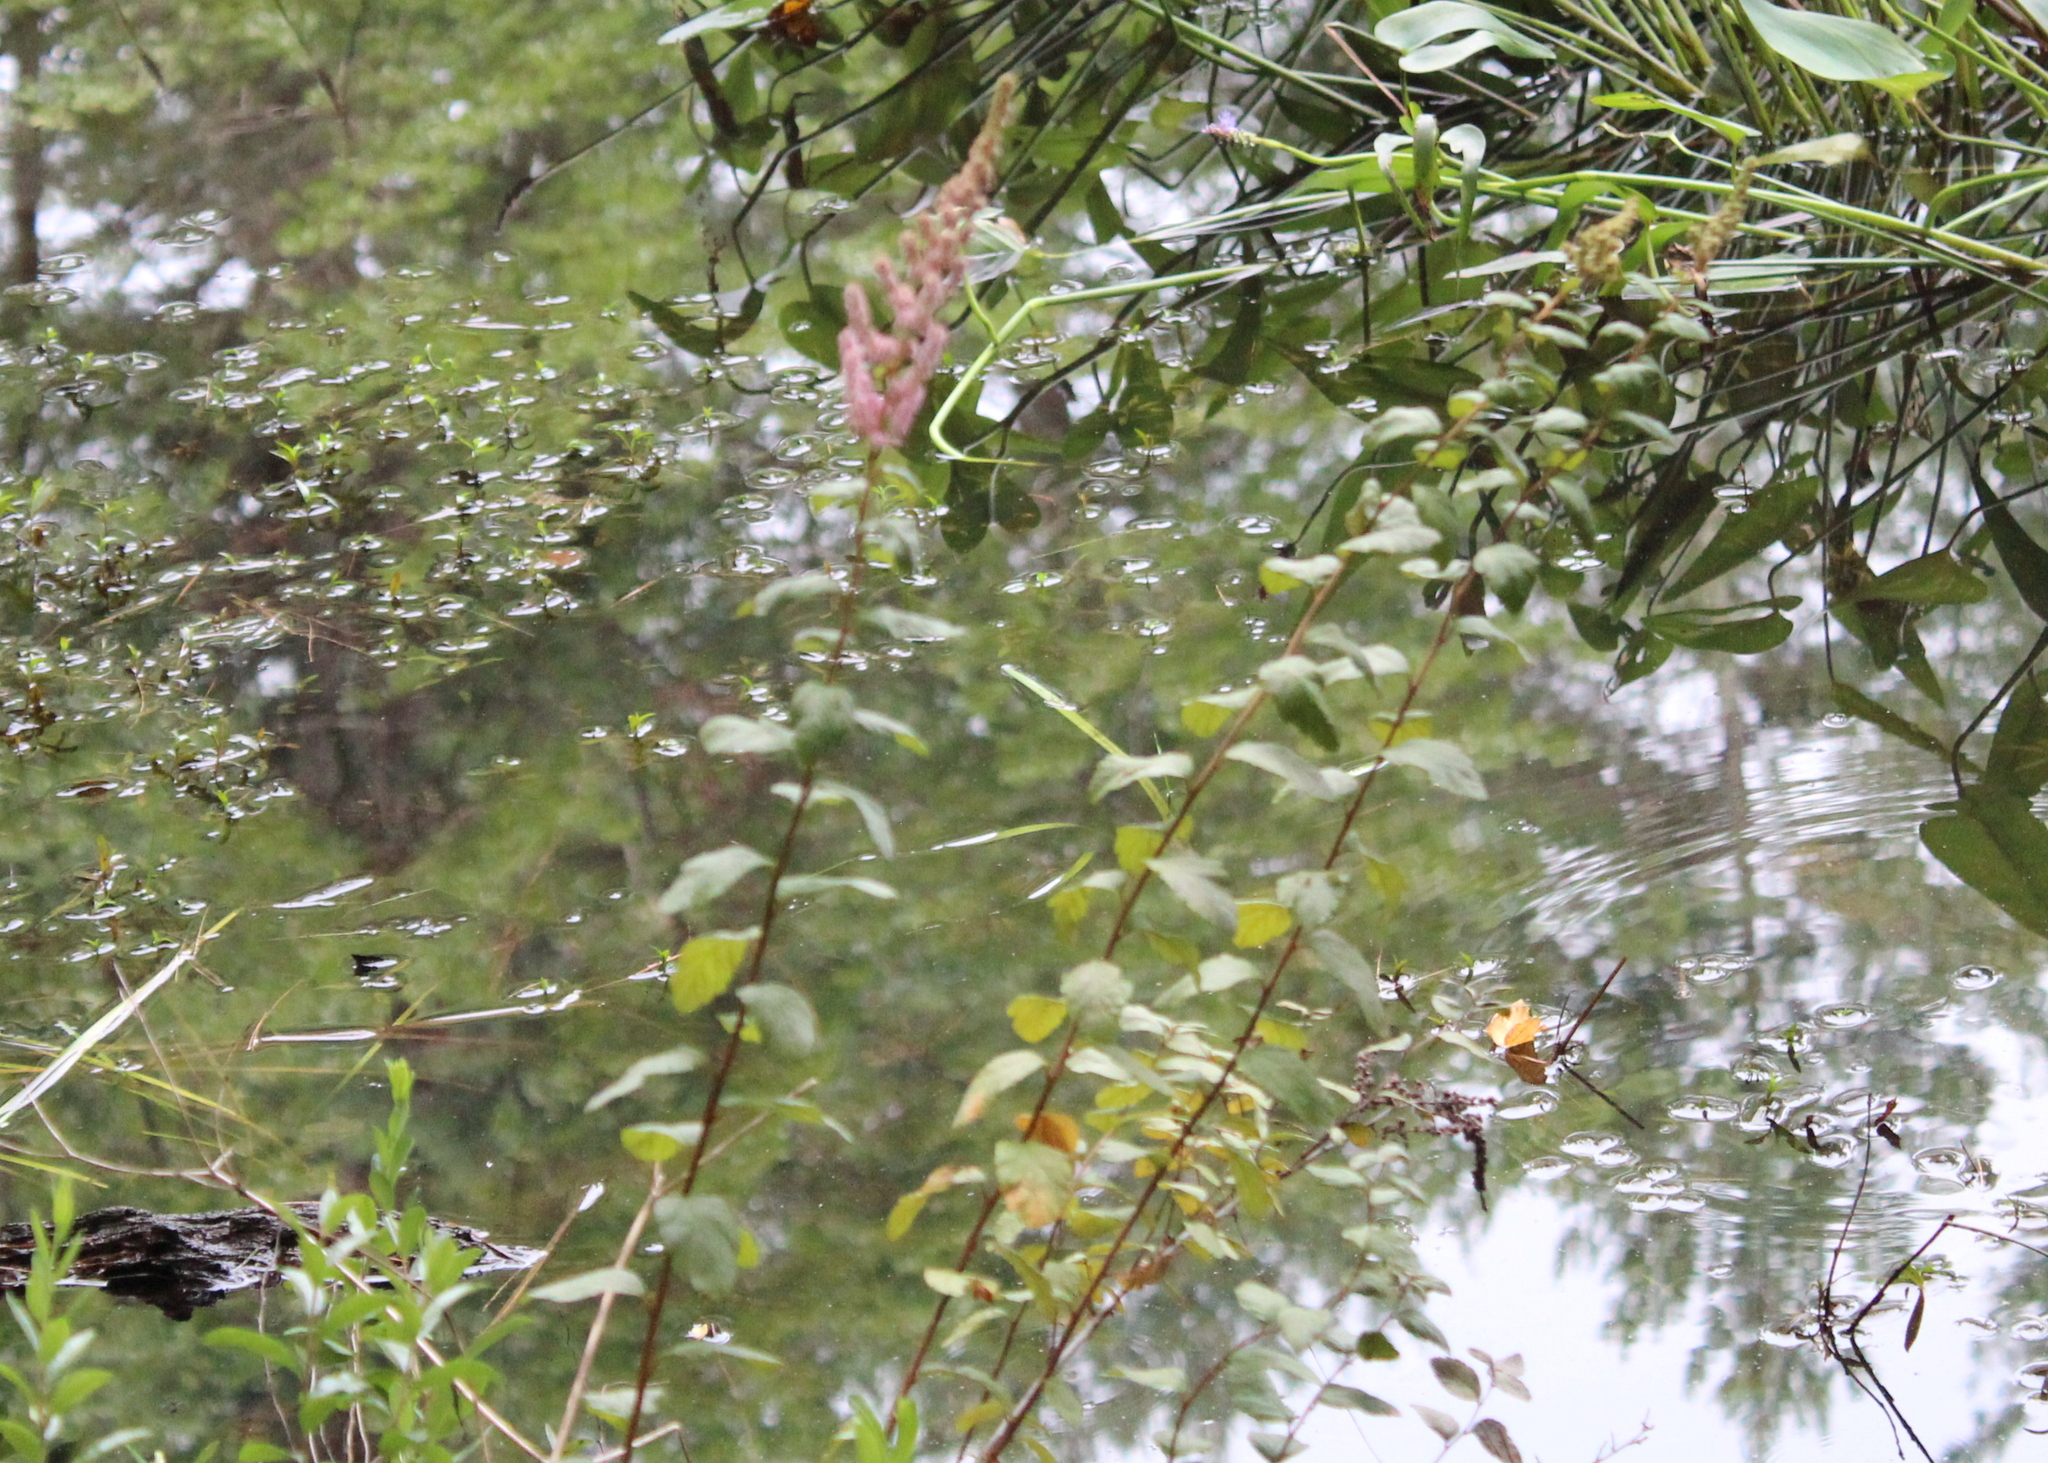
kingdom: Plantae
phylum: Tracheophyta
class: Magnoliopsida
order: Rosales
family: Rosaceae
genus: Spiraea
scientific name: Spiraea tomentosa
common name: Hardhack
